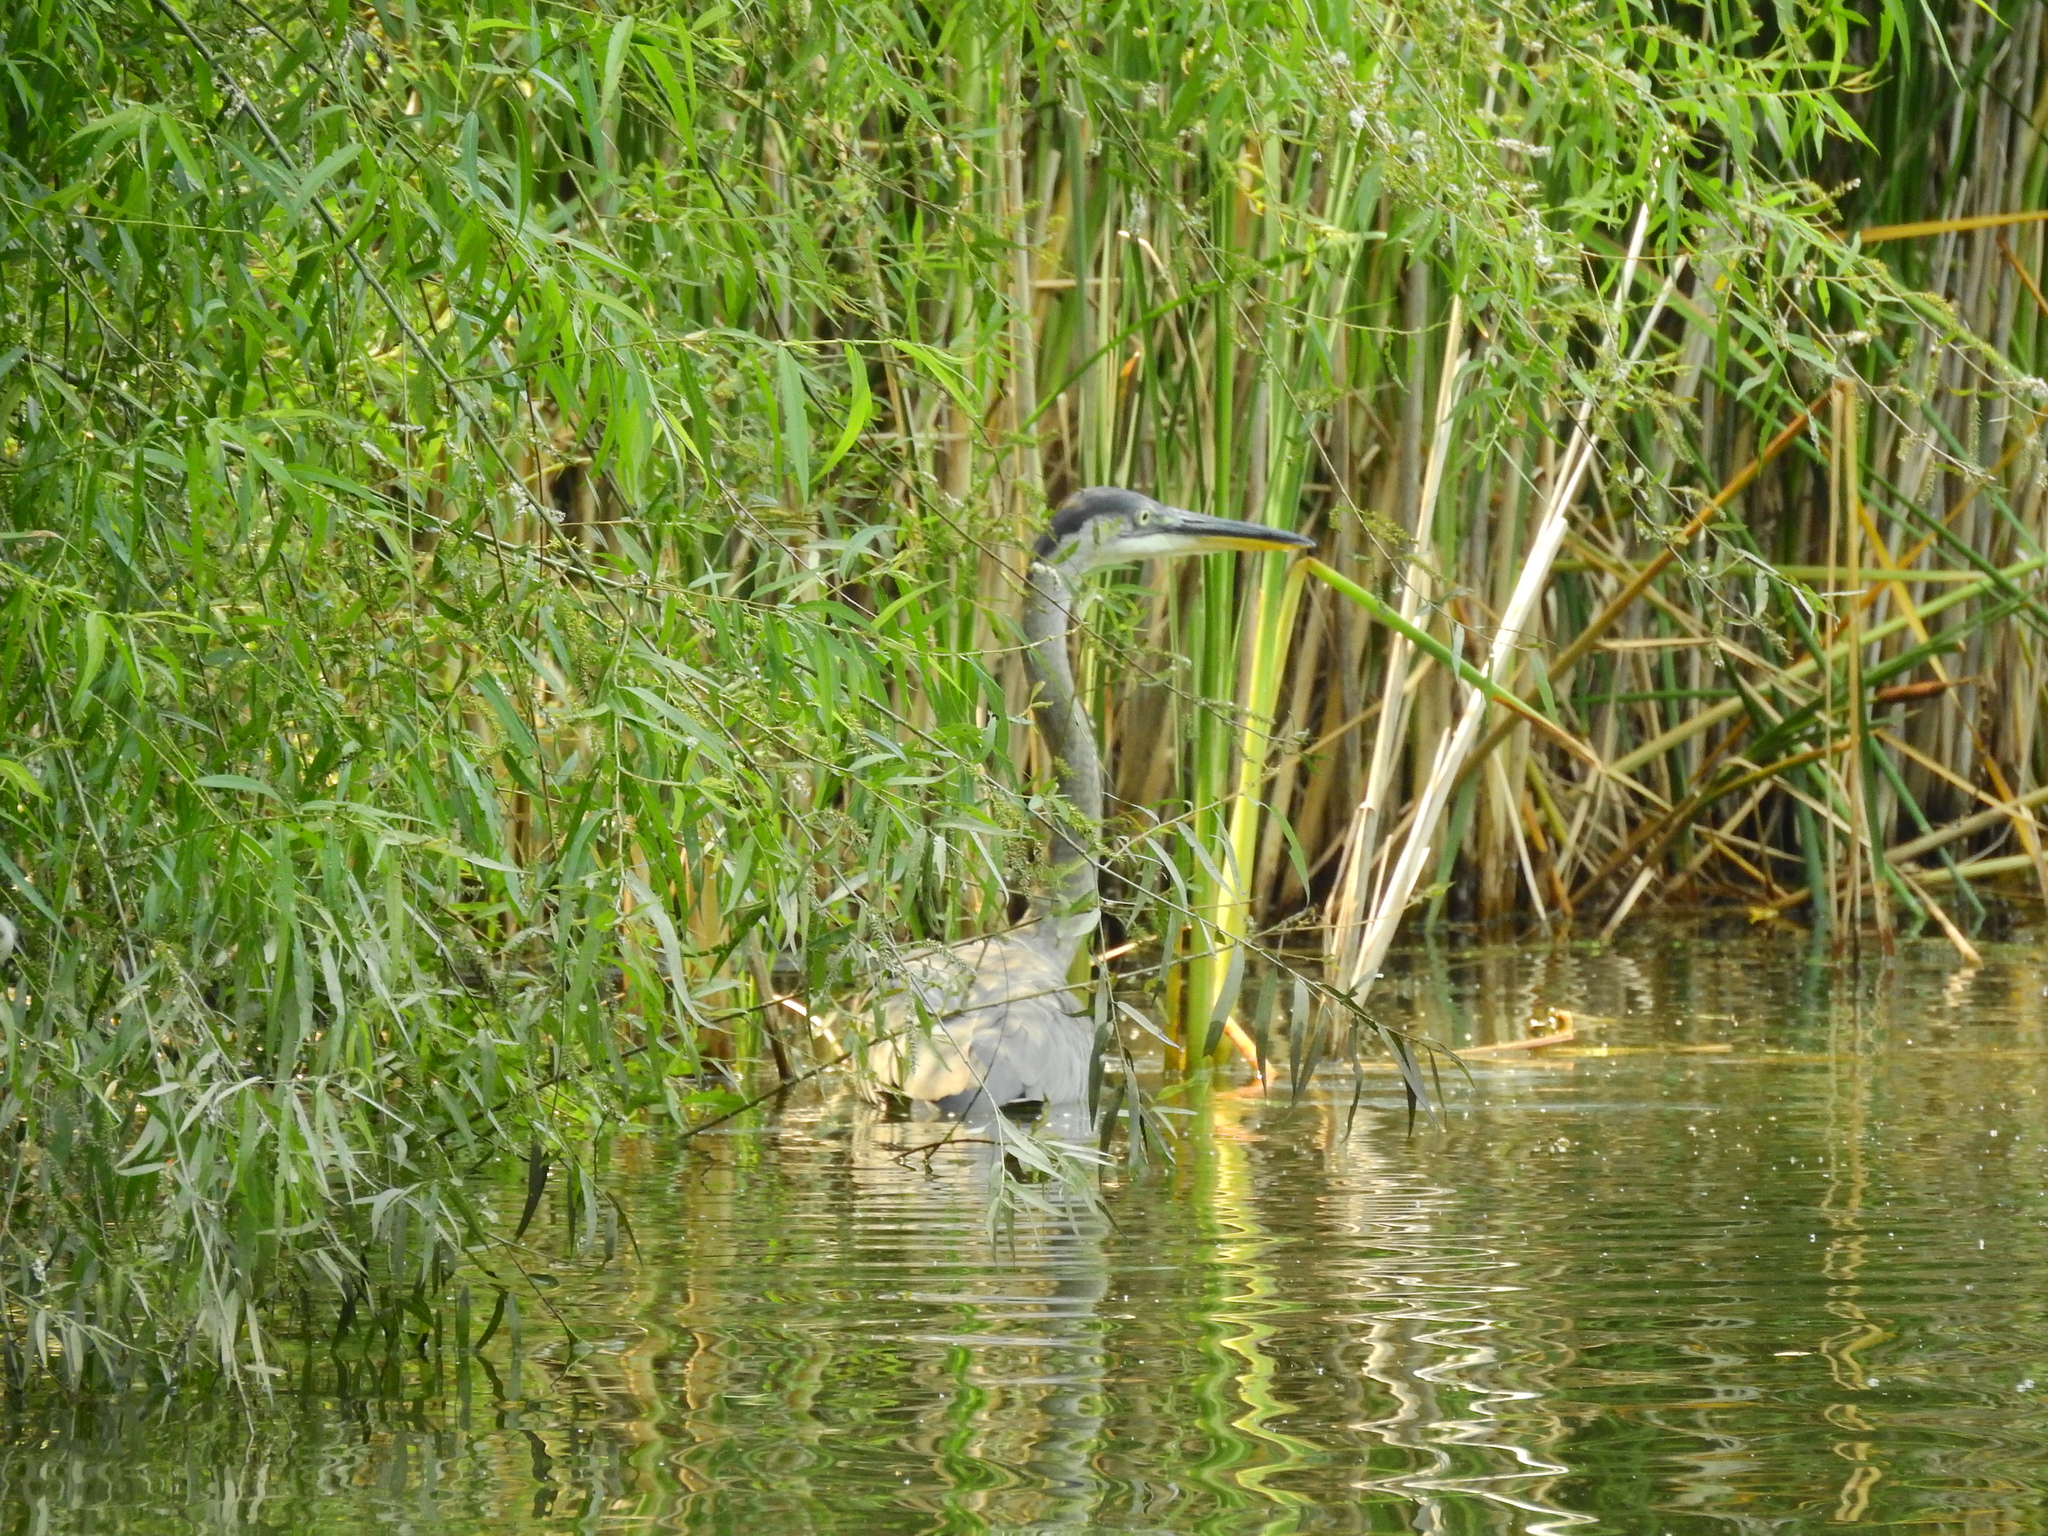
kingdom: Animalia
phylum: Chordata
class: Aves
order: Pelecaniformes
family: Ardeidae
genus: Ardea
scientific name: Ardea herodias
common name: Great blue heron
